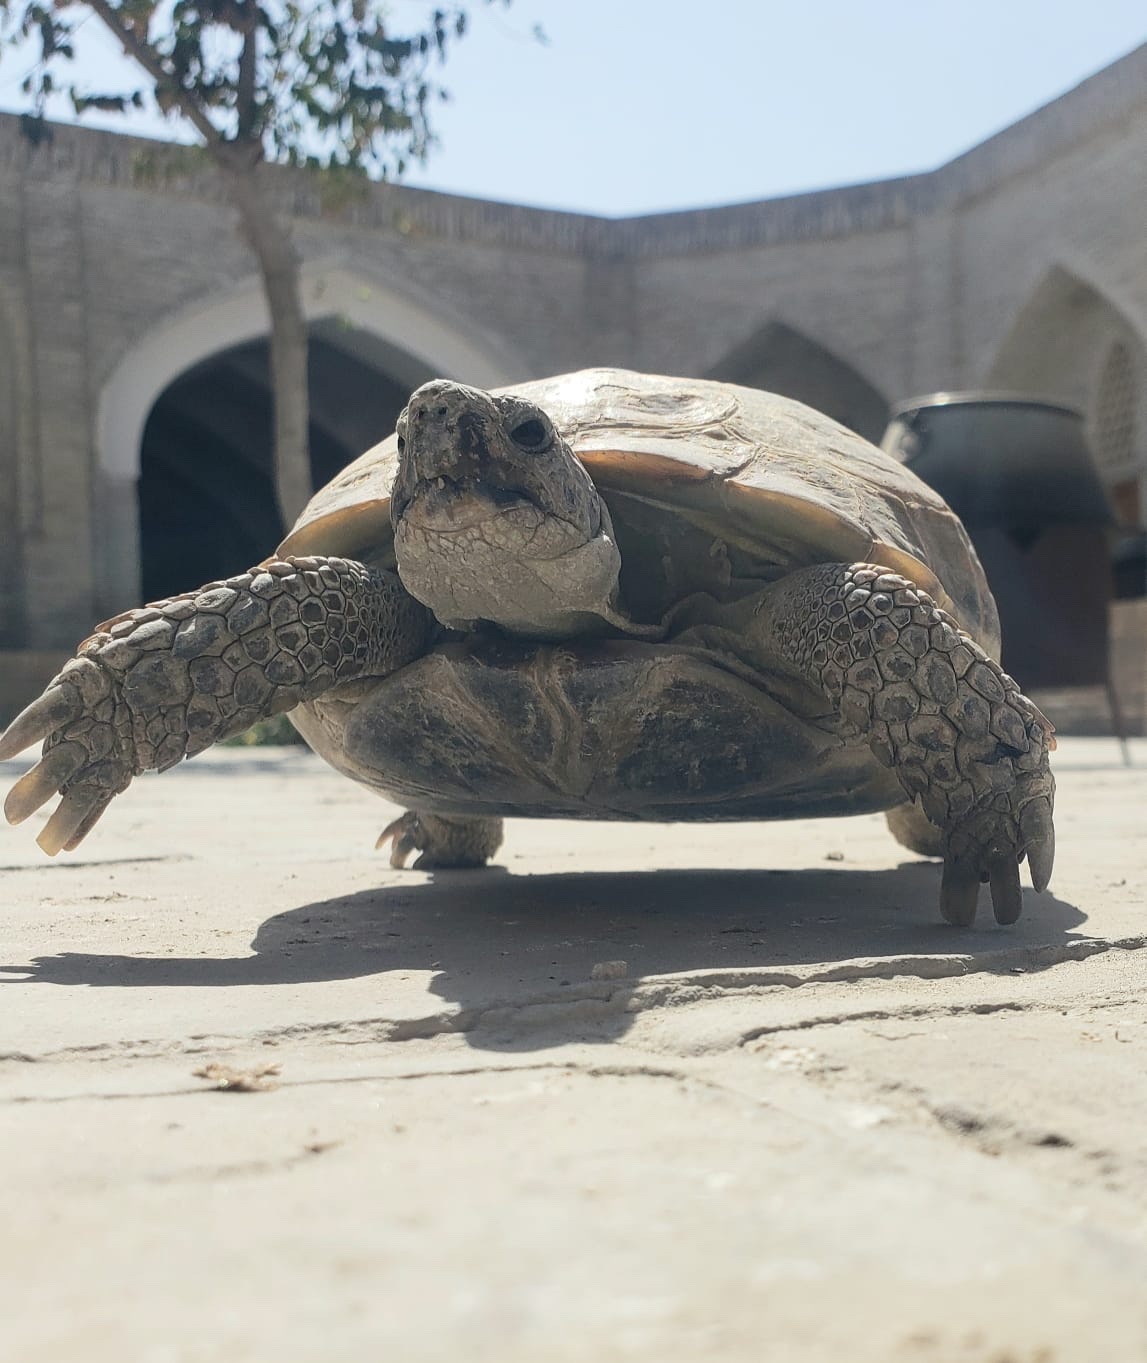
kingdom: Animalia
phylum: Chordata
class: Testudines
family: Testudinidae
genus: Testudo
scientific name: Testudo horsfieldii
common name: Central asia tortoise
